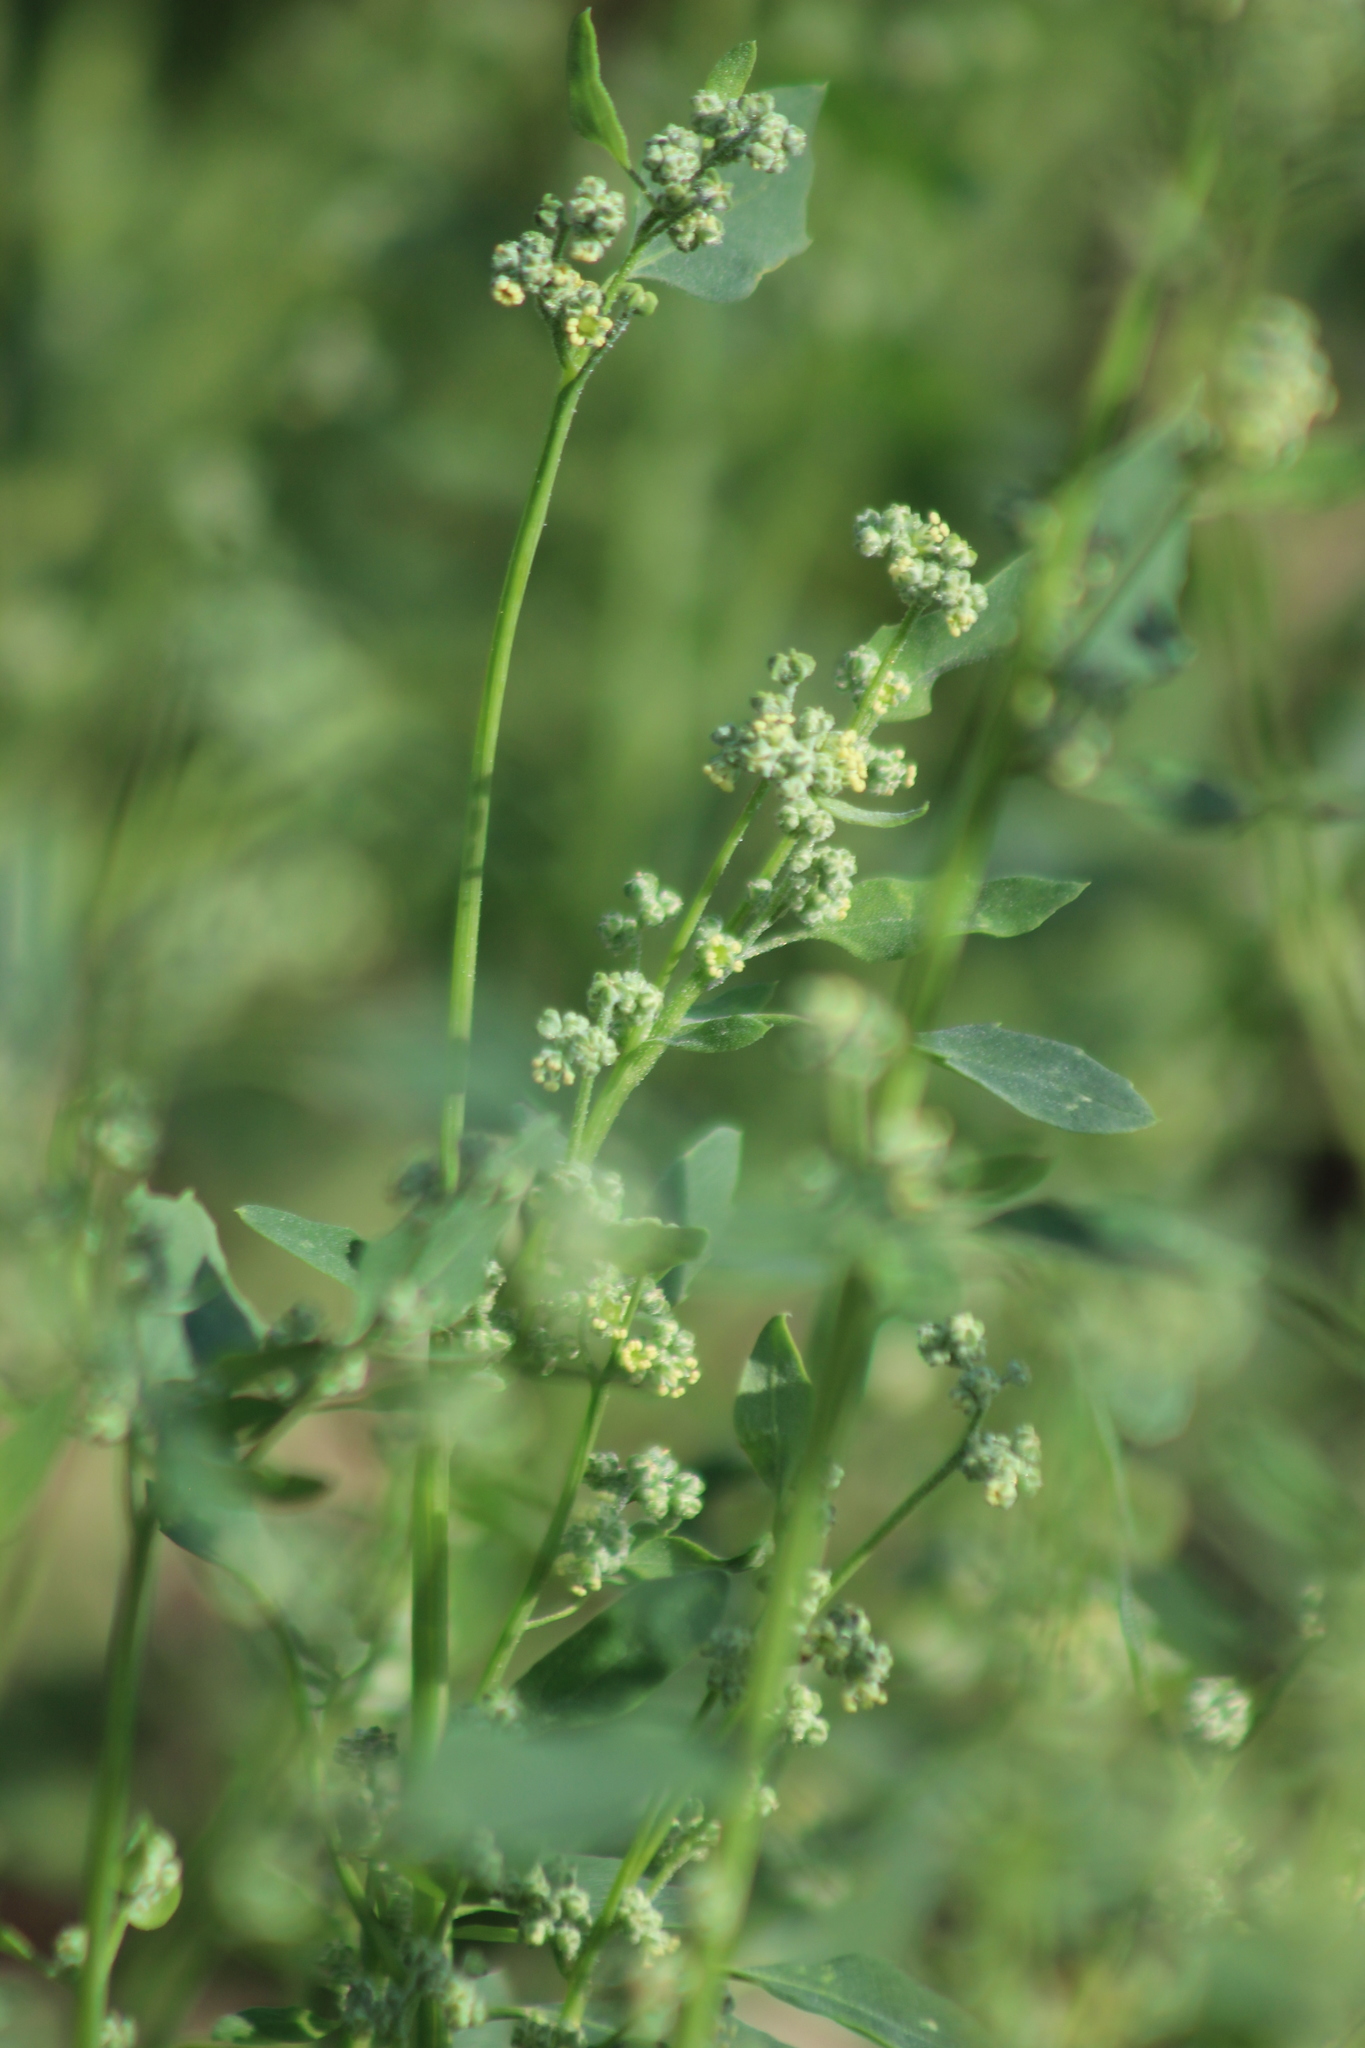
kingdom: Plantae
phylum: Tracheophyta
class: Magnoliopsida
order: Caryophyllales
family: Amaranthaceae
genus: Chenopodium
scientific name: Chenopodium album
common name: Fat-hen
